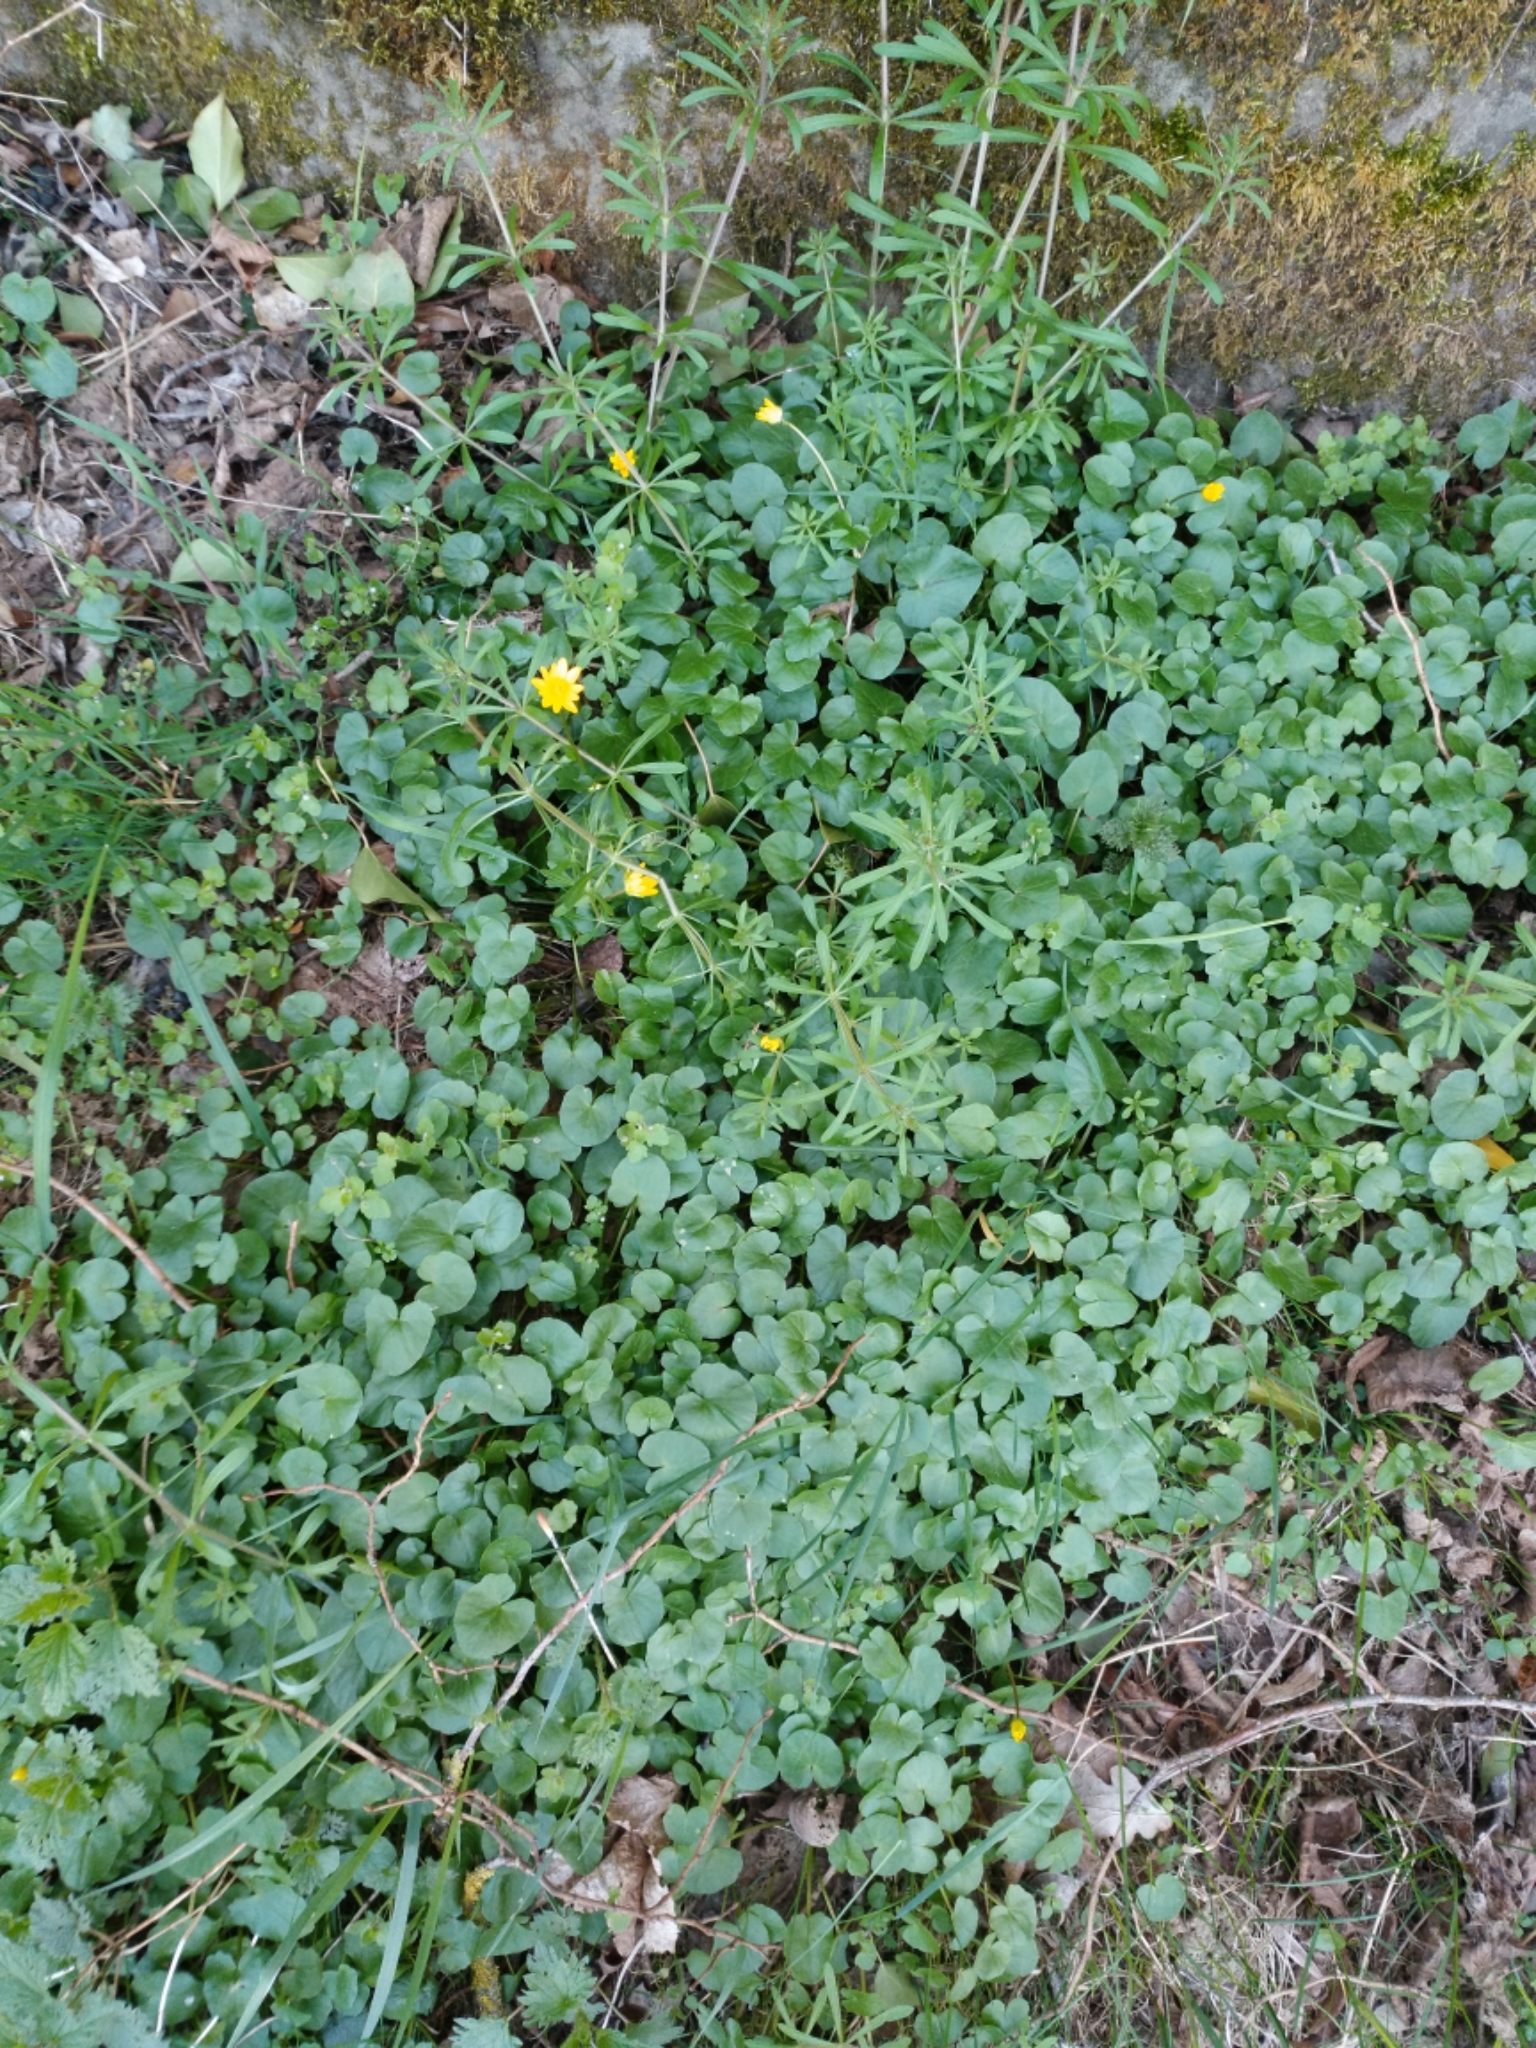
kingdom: Plantae
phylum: Tracheophyta
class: Magnoliopsida
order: Ranunculales
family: Ranunculaceae
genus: Ficaria
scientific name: Ficaria verna
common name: Lesser celandine
